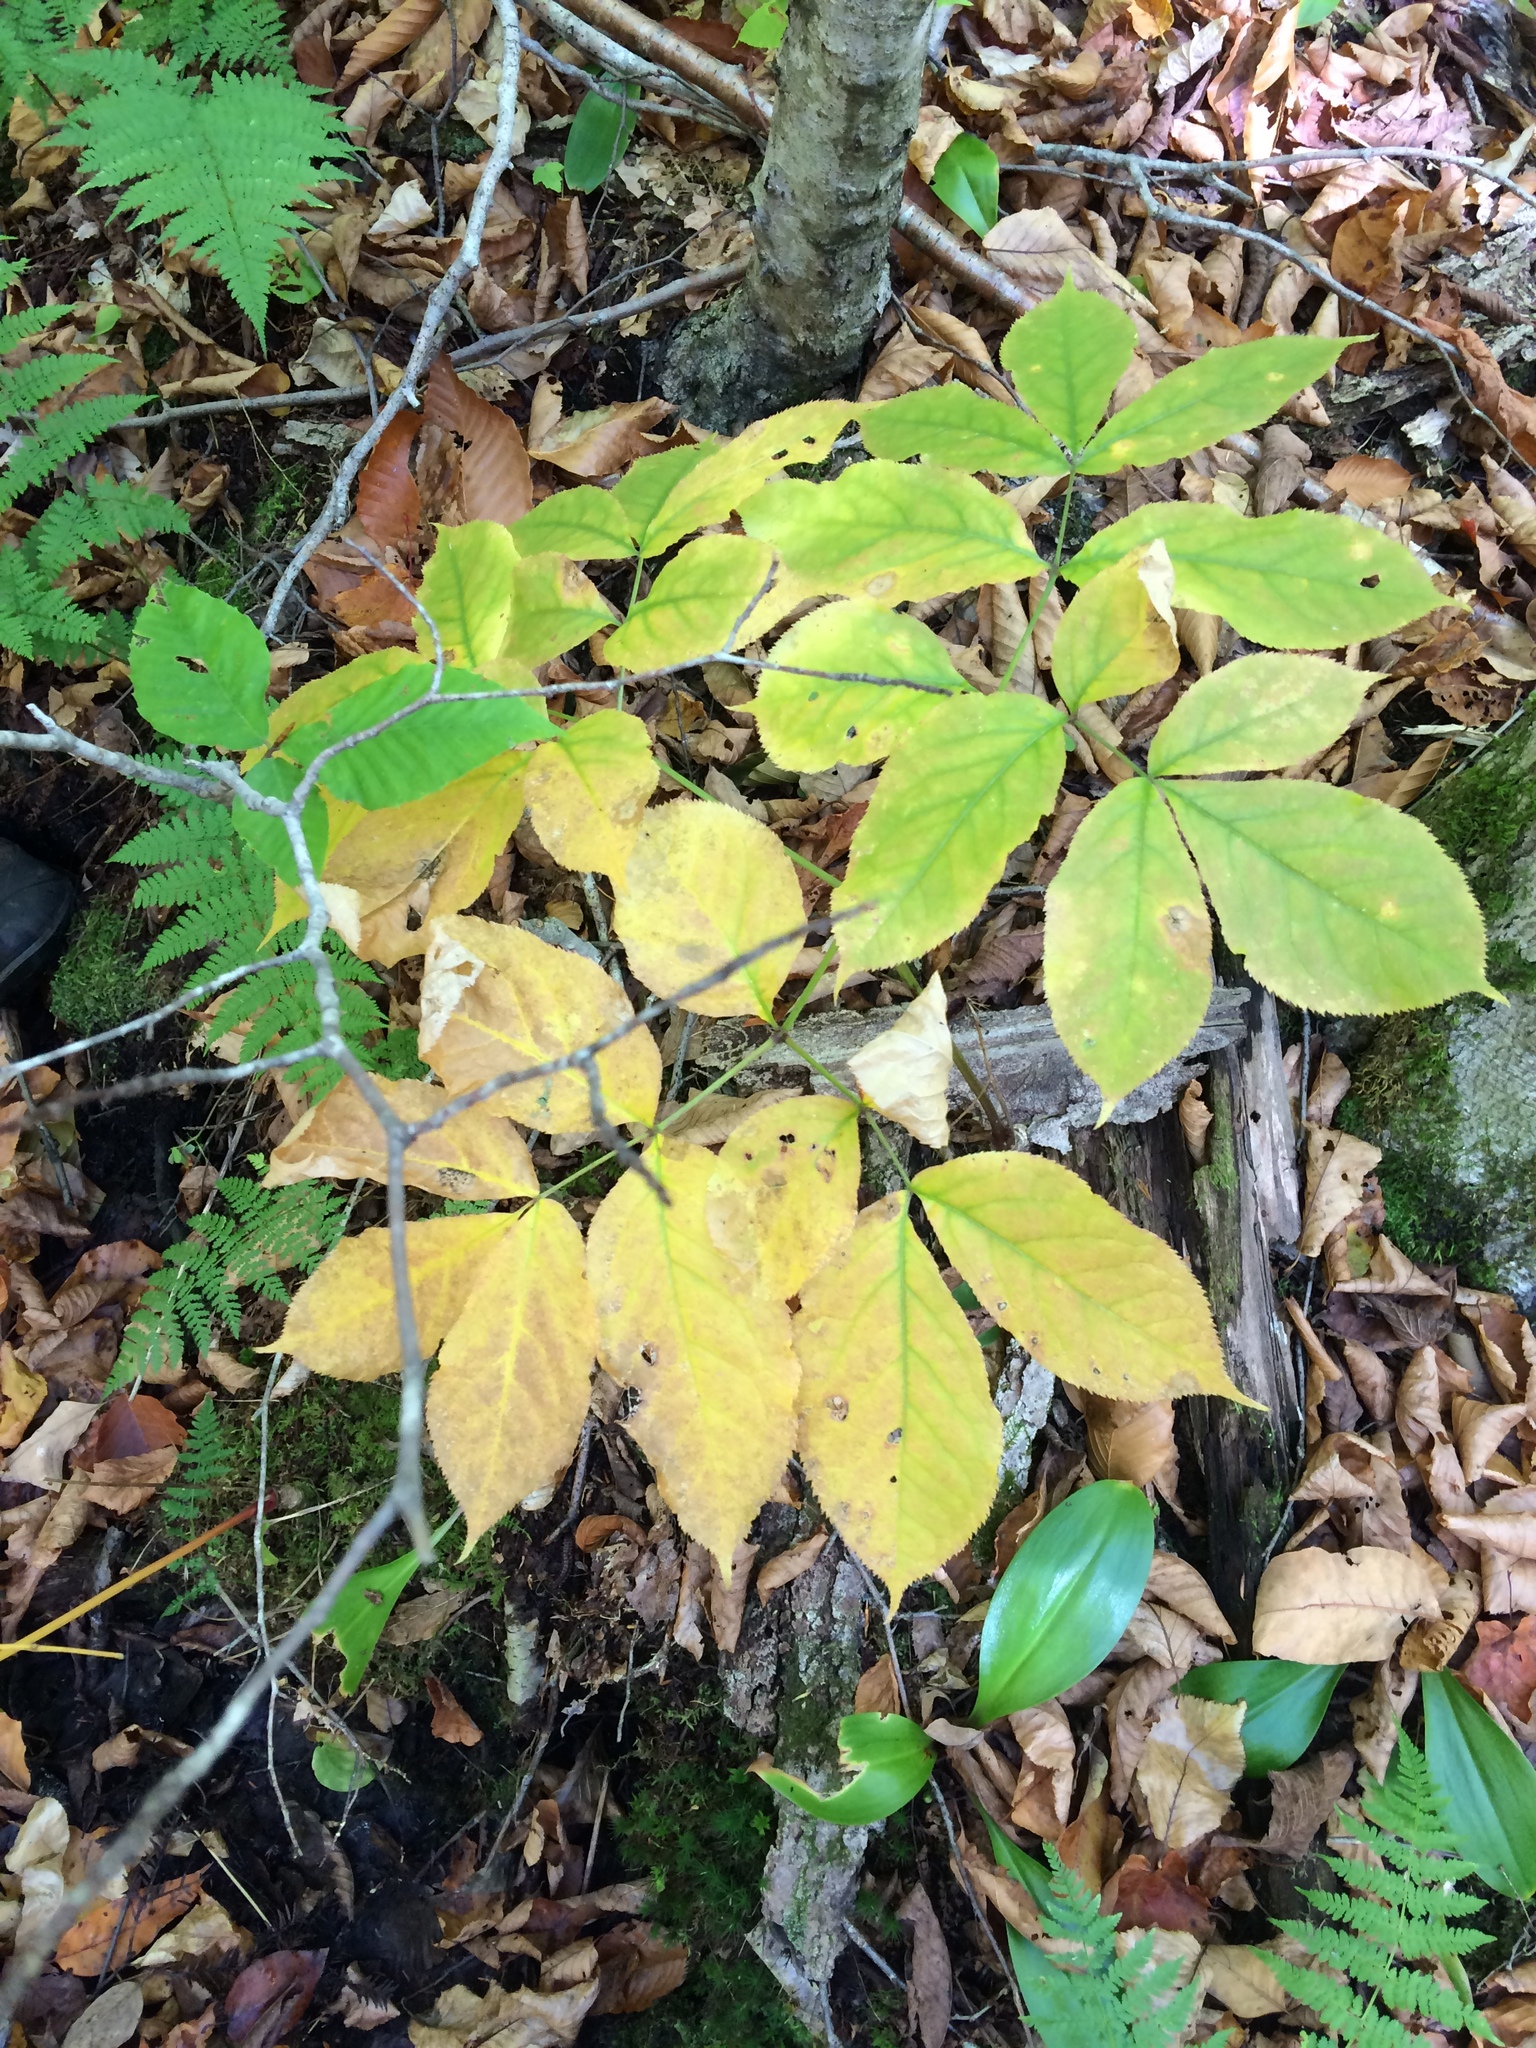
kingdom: Plantae
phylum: Tracheophyta
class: Magnoliopsida
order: Apiales
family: Araliaceae
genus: Aralia
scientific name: Aralia nudicaulis
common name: Wild sarsaparilla
